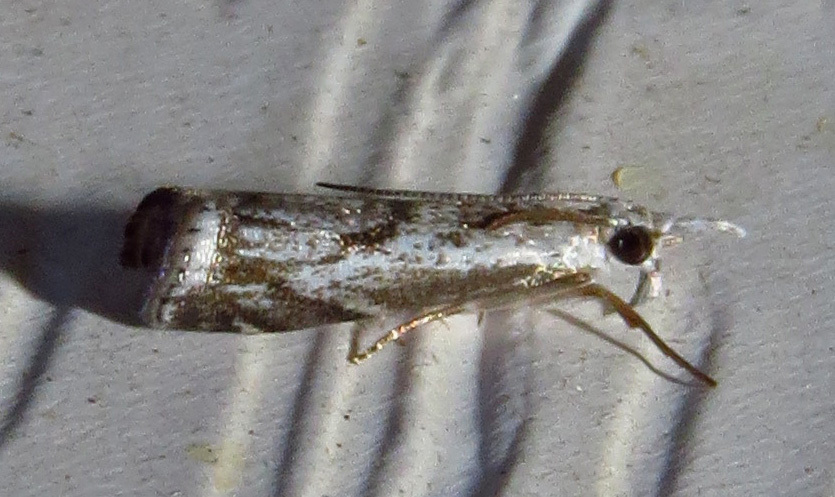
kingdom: Animalia
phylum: Arthropoda
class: Insecta
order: Lepidoptera
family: Crambidae
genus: Microcrambus
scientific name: Microcrambus kimballi
